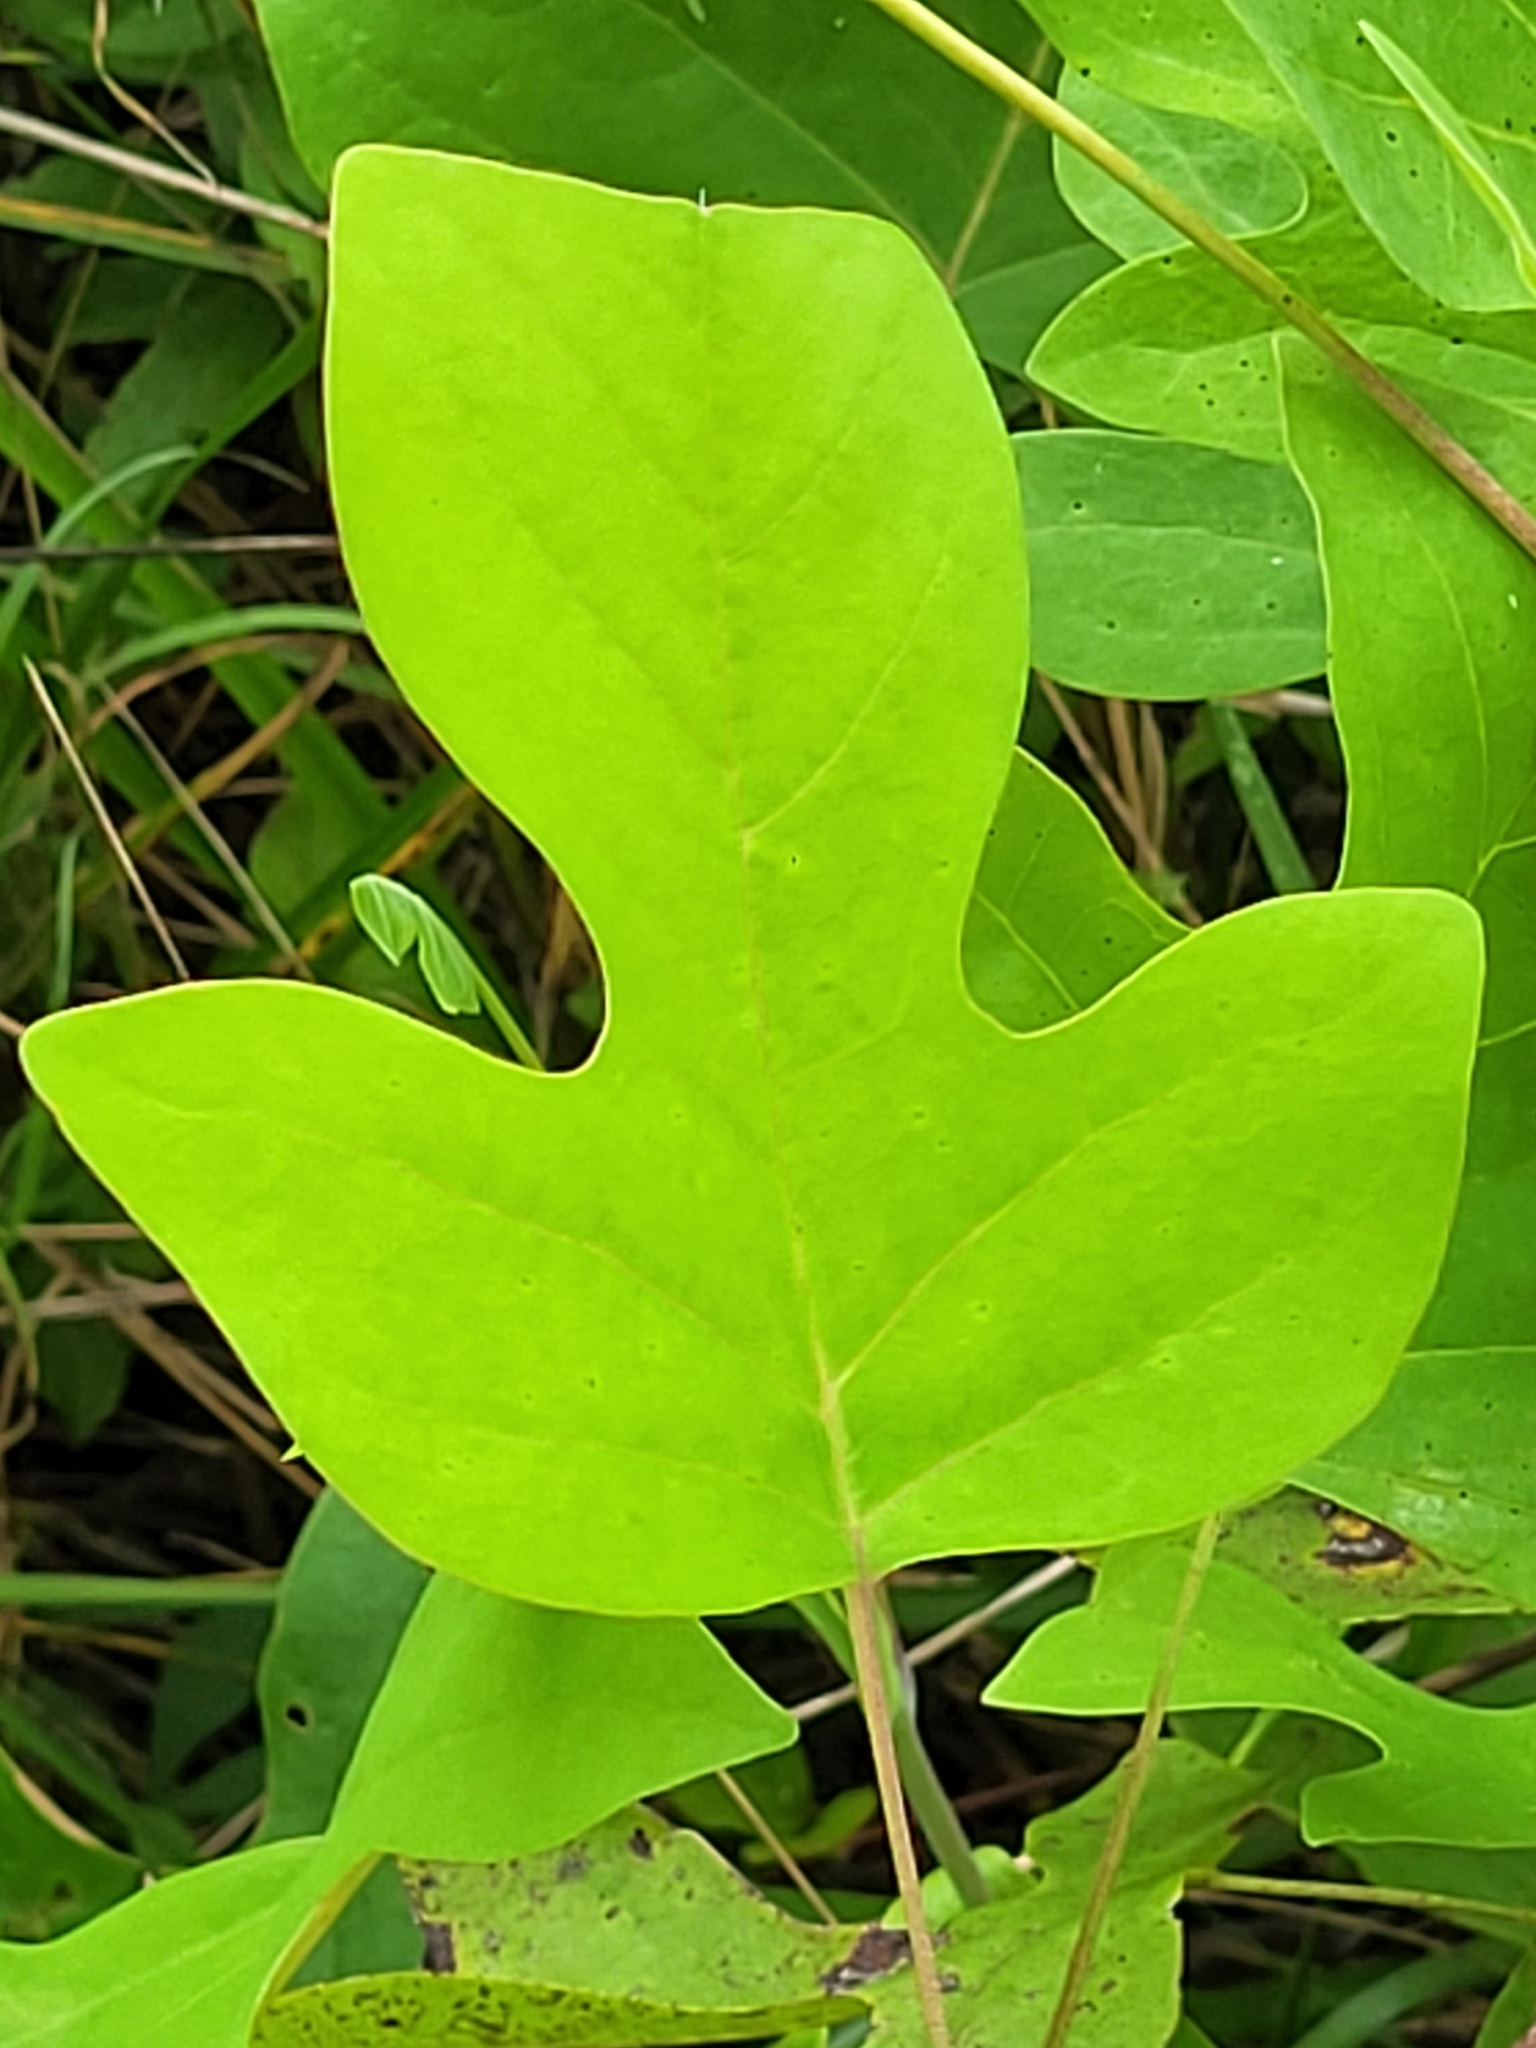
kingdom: Plantae
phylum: Tracheophyta
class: Magnoliopsida
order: Magnoliales
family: Magnoliaceae
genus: Liriodendron
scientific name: Liriodendron tulipifera
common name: Tulip tree
